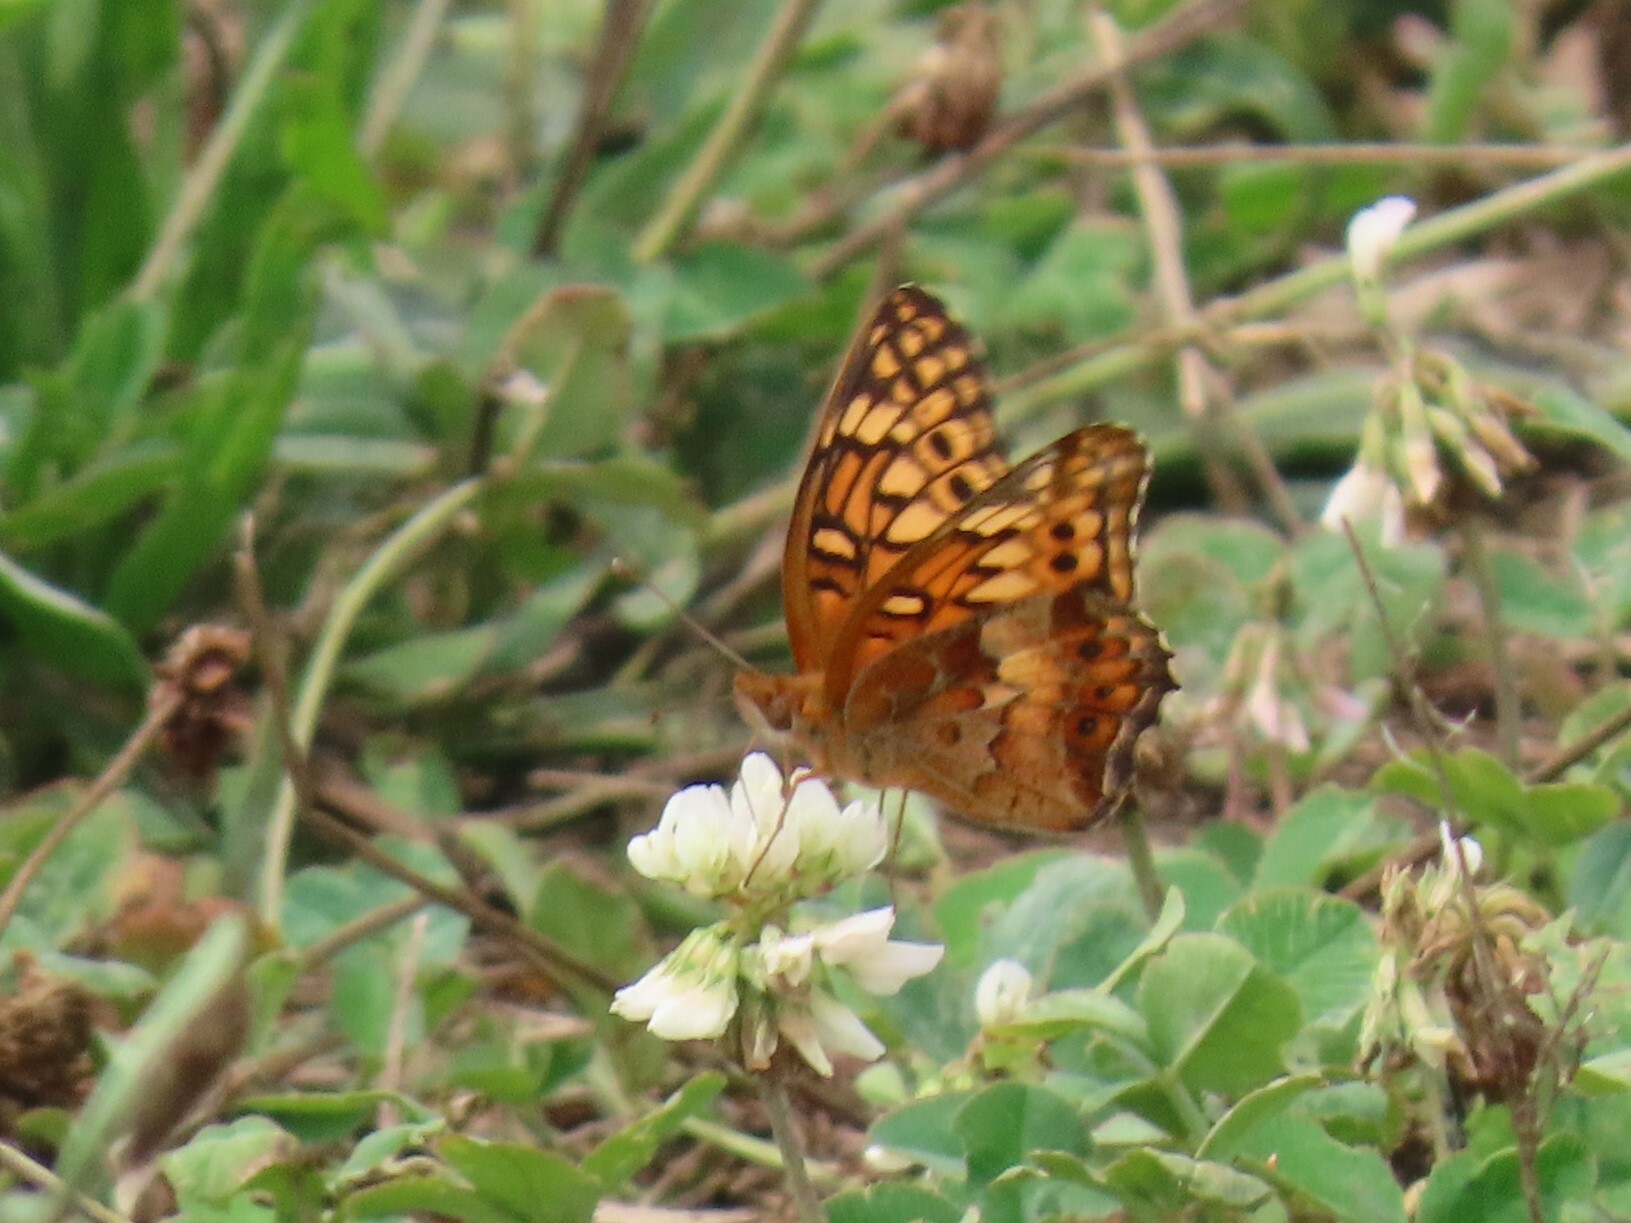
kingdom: Animalia
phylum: Arthropoda
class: Insecta
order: Lepidoptera
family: Nymphalidae
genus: Euptoieta
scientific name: Euptoieta claudia
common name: Variegated fritillary
